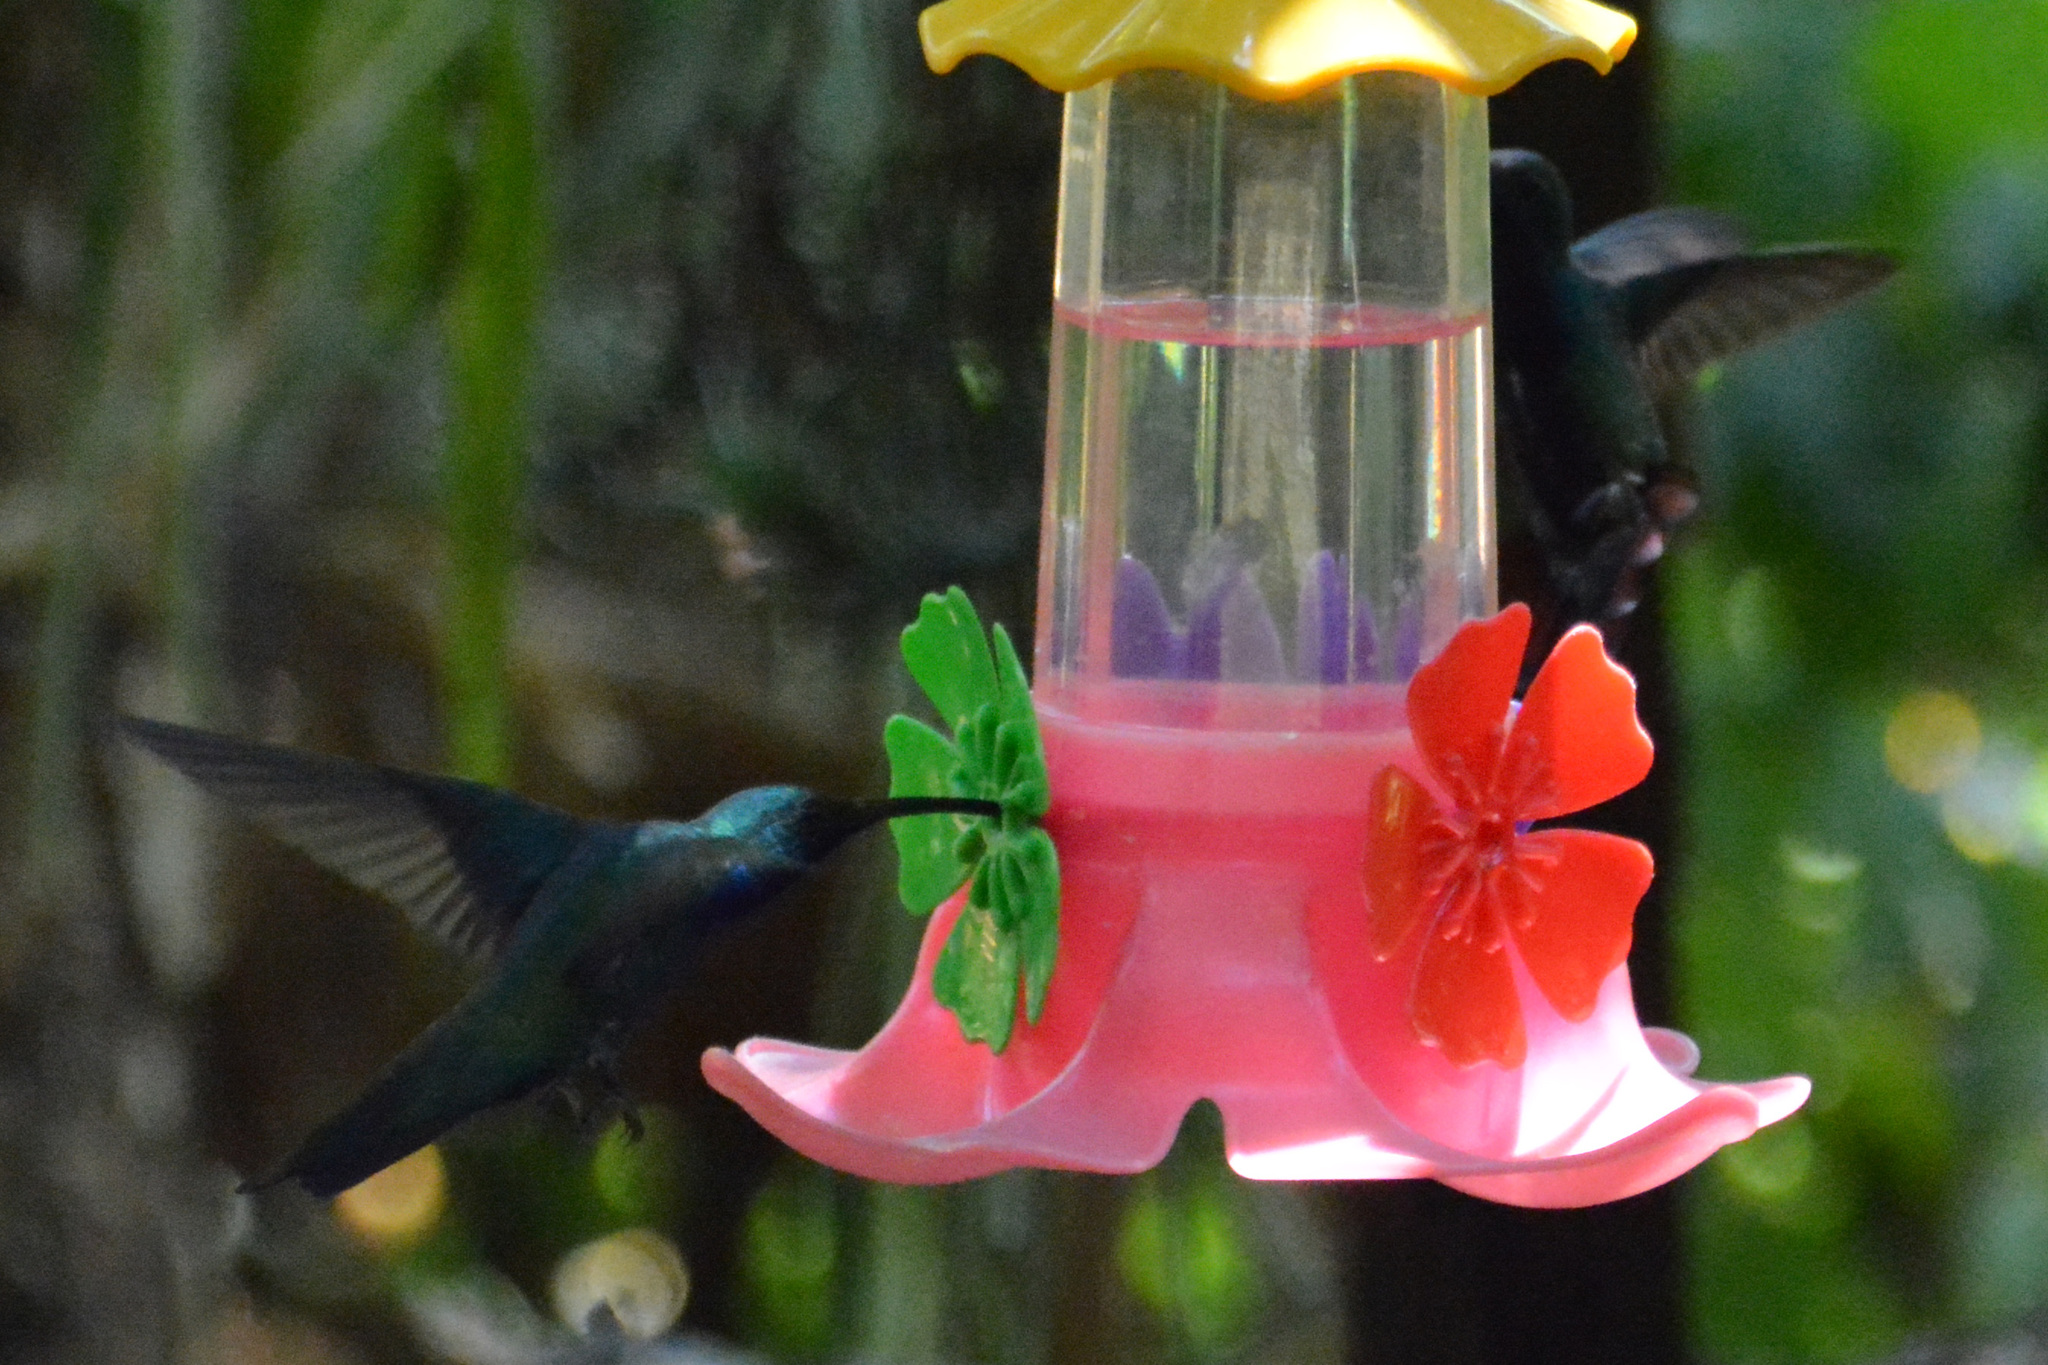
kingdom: Animalia
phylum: Chordata
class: Aves
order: Apodiformes
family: Trochilidae
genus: Anthracothorax
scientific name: Anthracothorax nigricollis
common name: Black-throated mango
